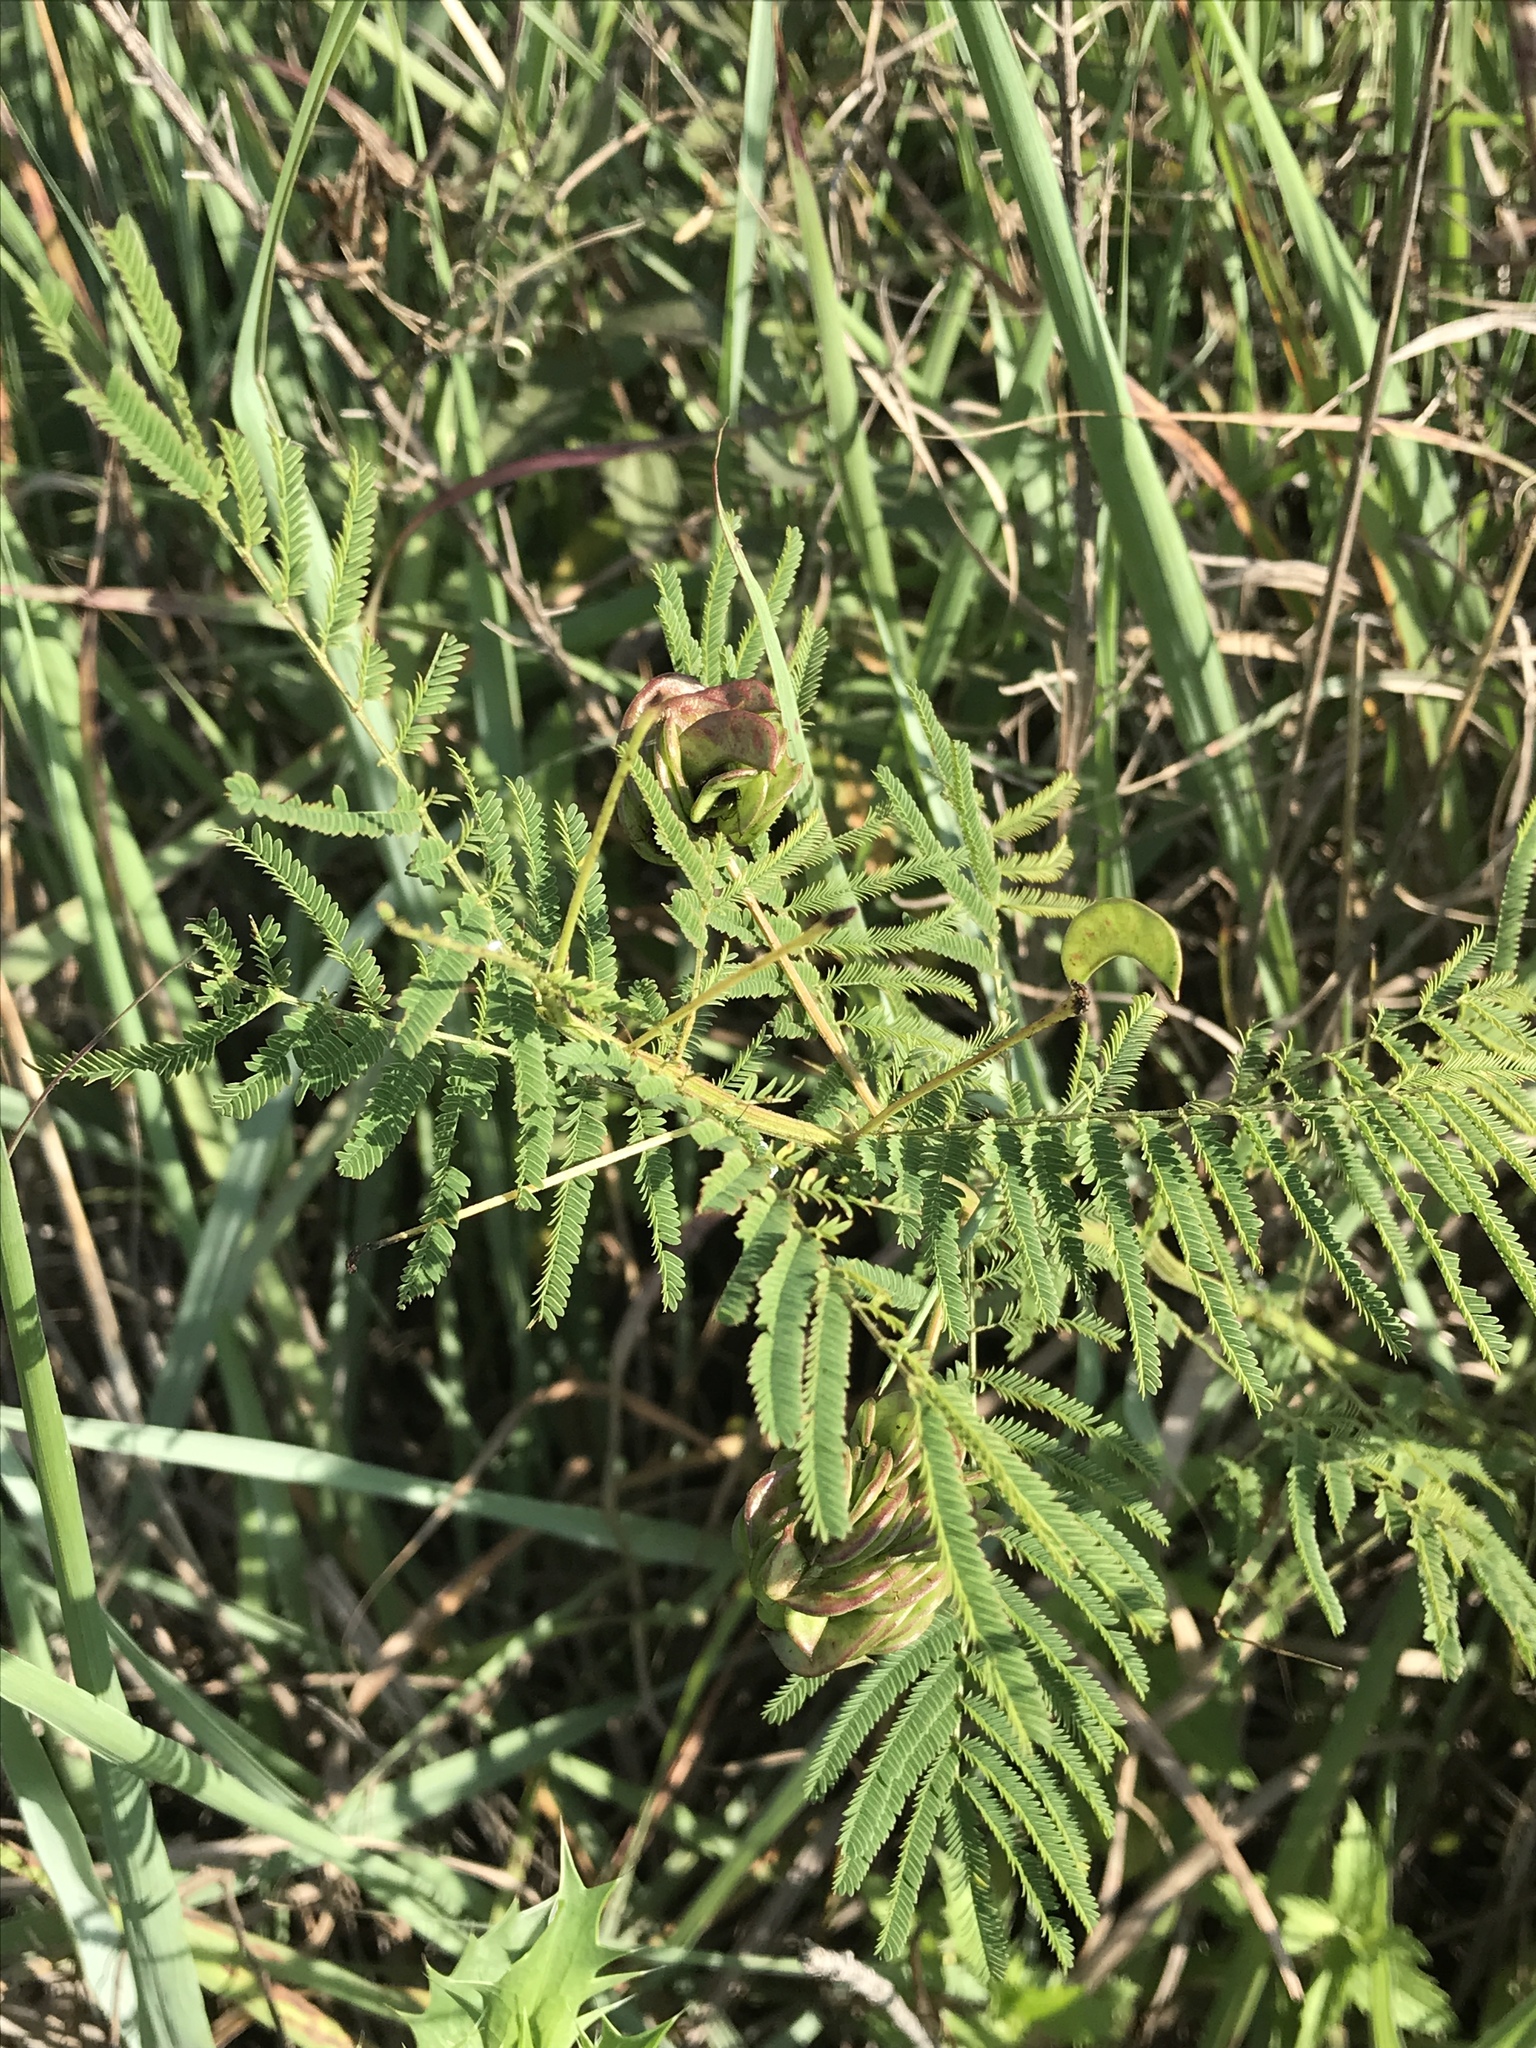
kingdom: Plantae
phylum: Tracheophyta
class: Magnoliopsida
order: Fabales
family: Fabaceae
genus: Desmanthus
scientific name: Desmanthus illinoensis
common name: Illinois bundle-flower
